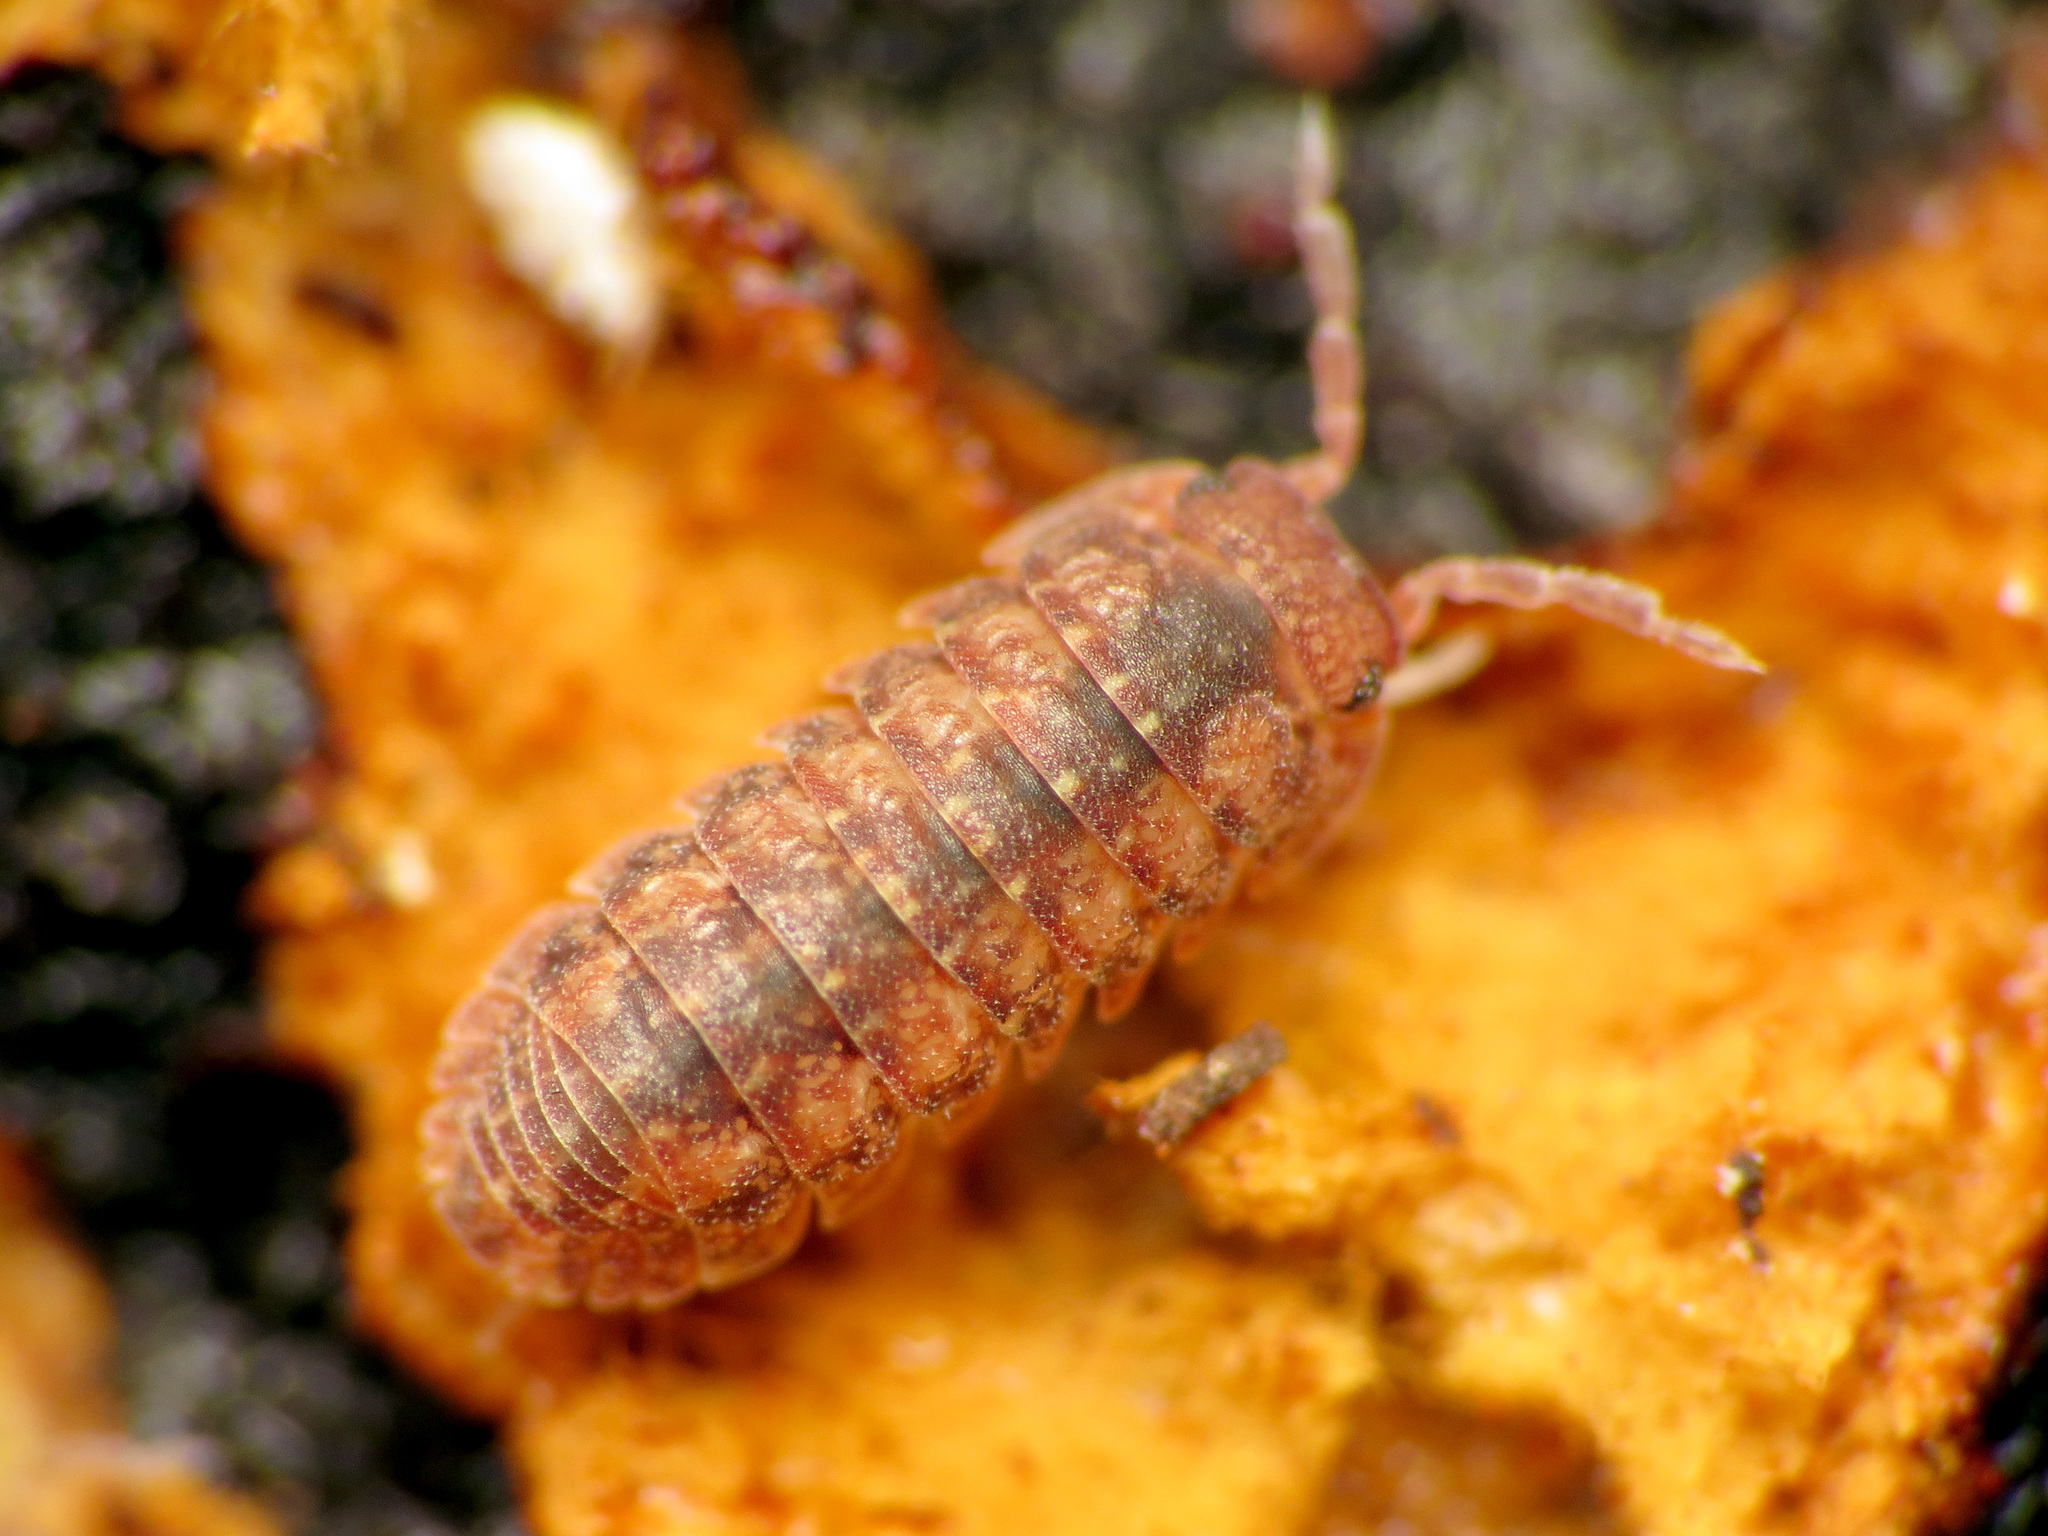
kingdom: Animalia
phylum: Arthropoda
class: Malacostraca
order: Isopoda
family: Armadillidae
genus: Cubaris
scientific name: Cubaris tarangensis
